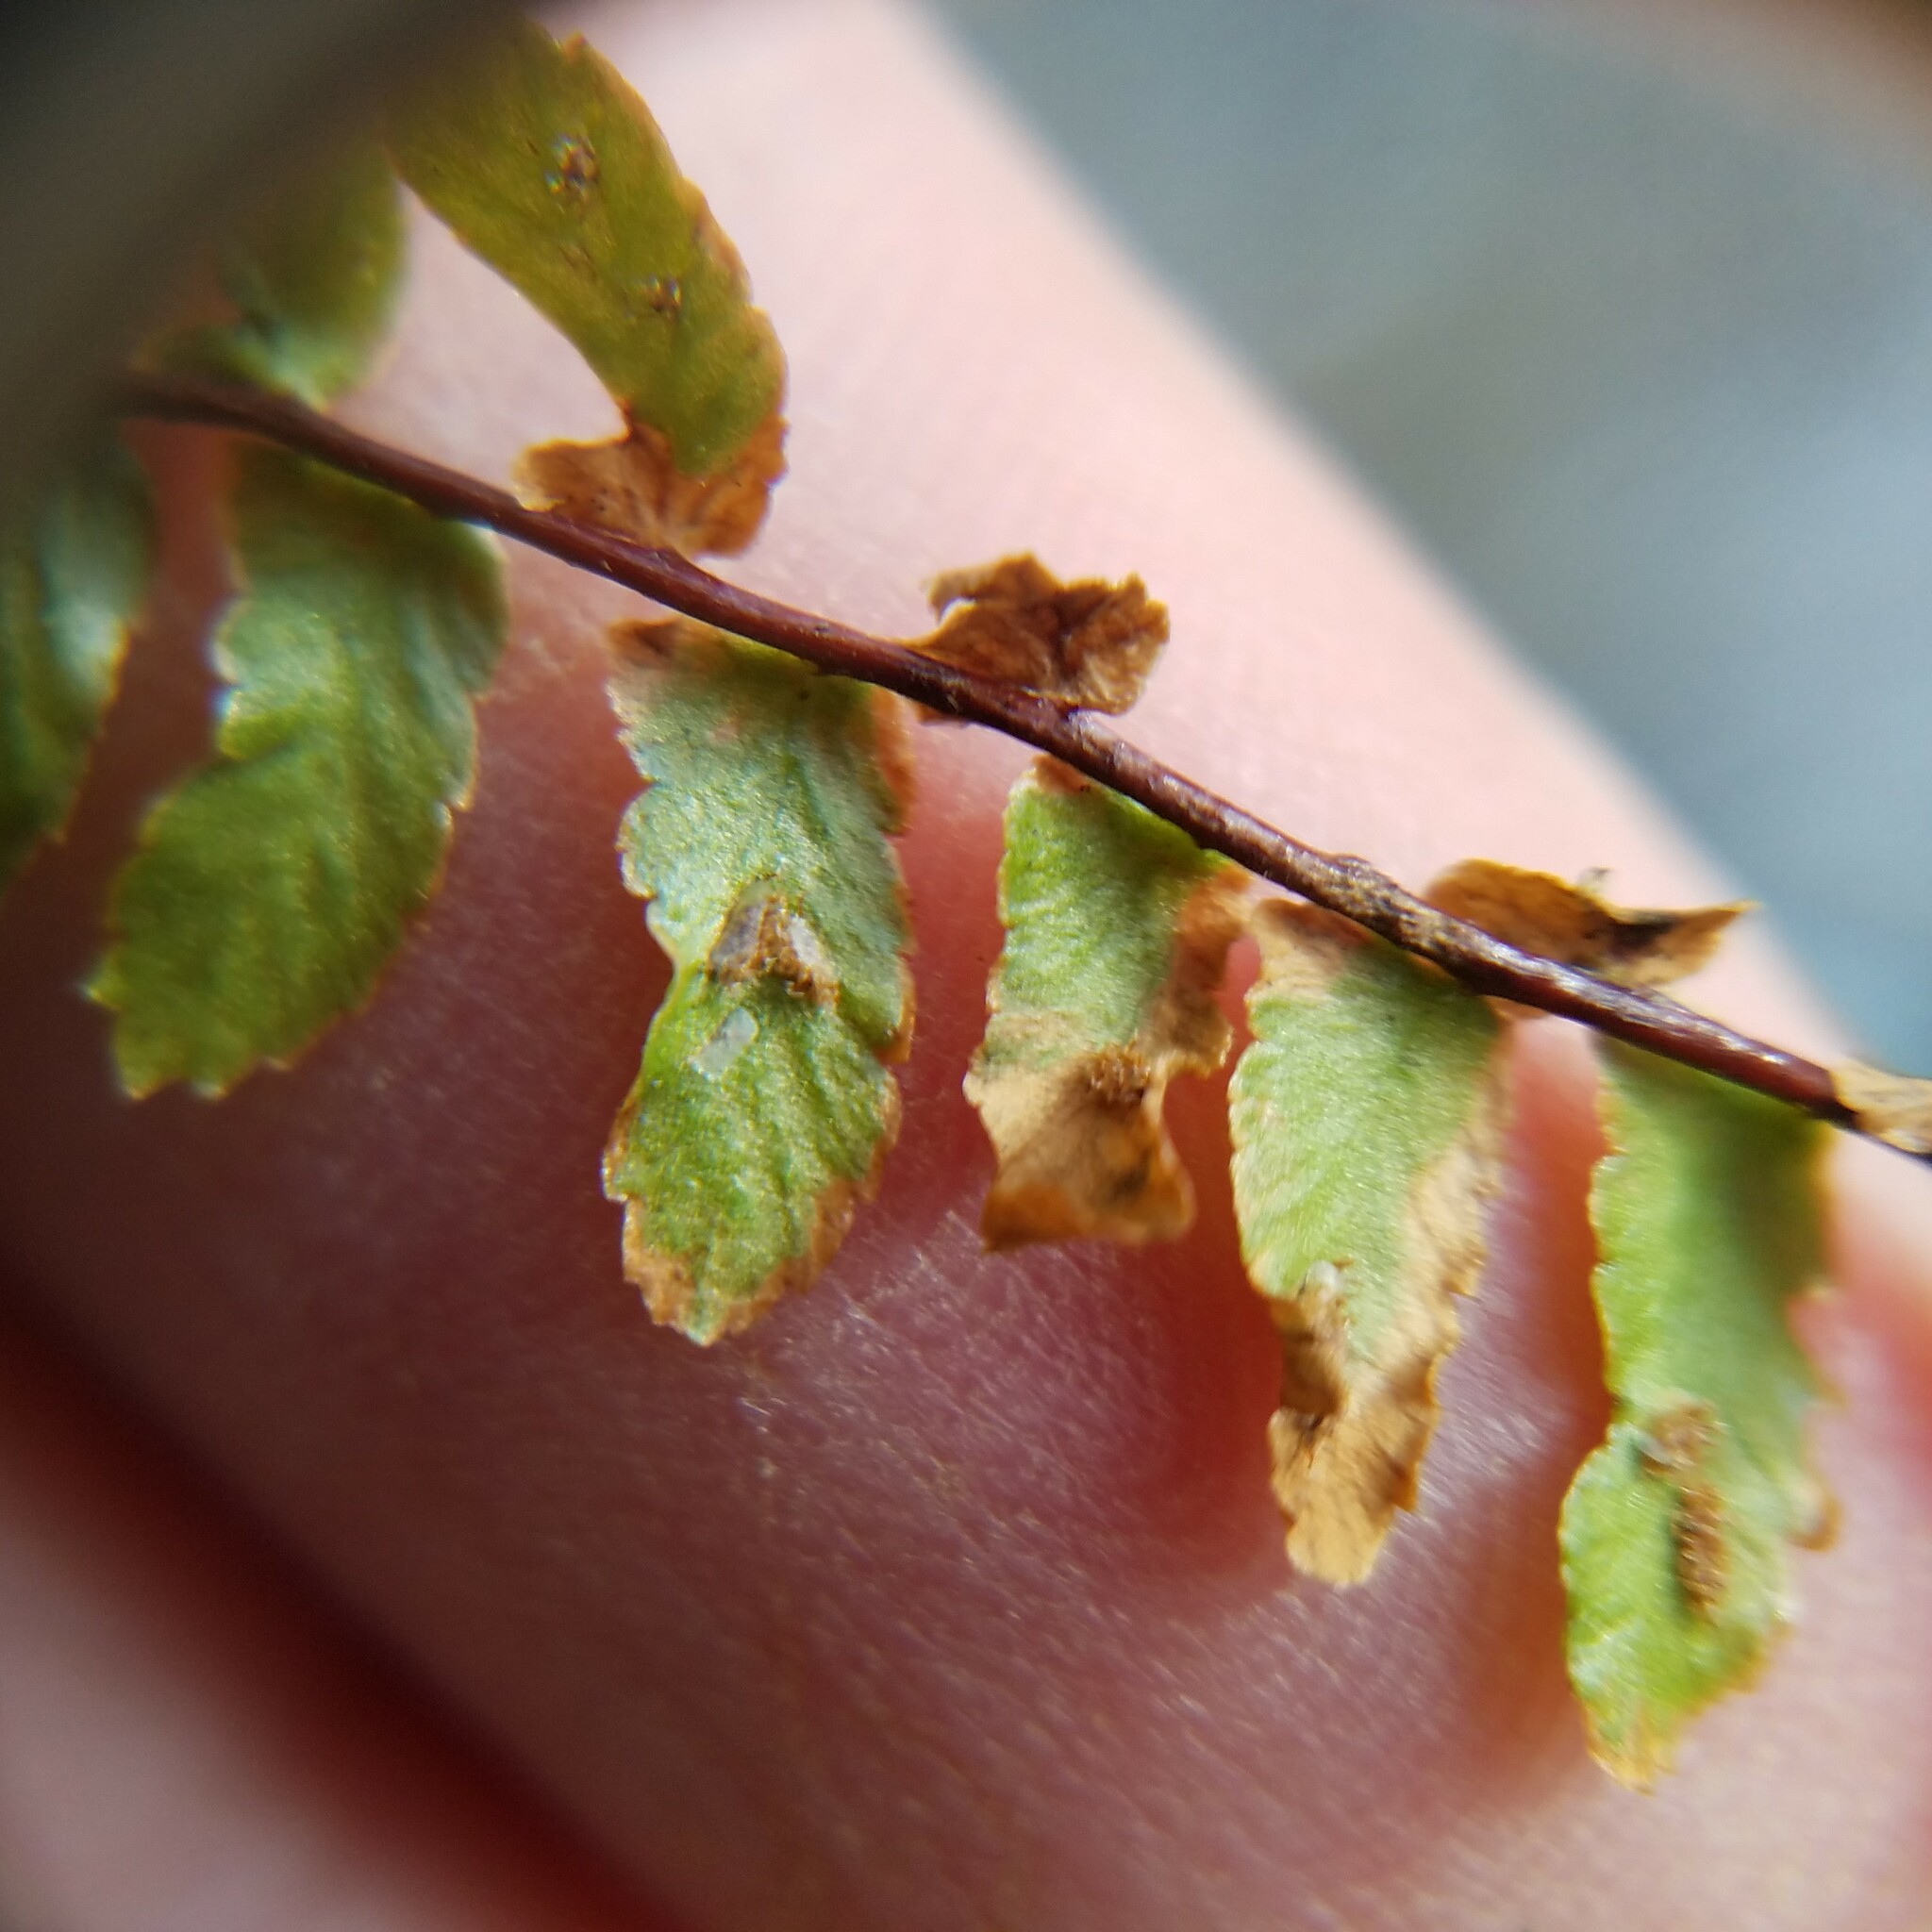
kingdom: Plantae
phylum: Tracheophyta
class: Polypodiopsida
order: Polypodiales
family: Aspleniaceae
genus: Asplenium
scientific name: Asplenium platyneuron
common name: Ebony spleenwort
